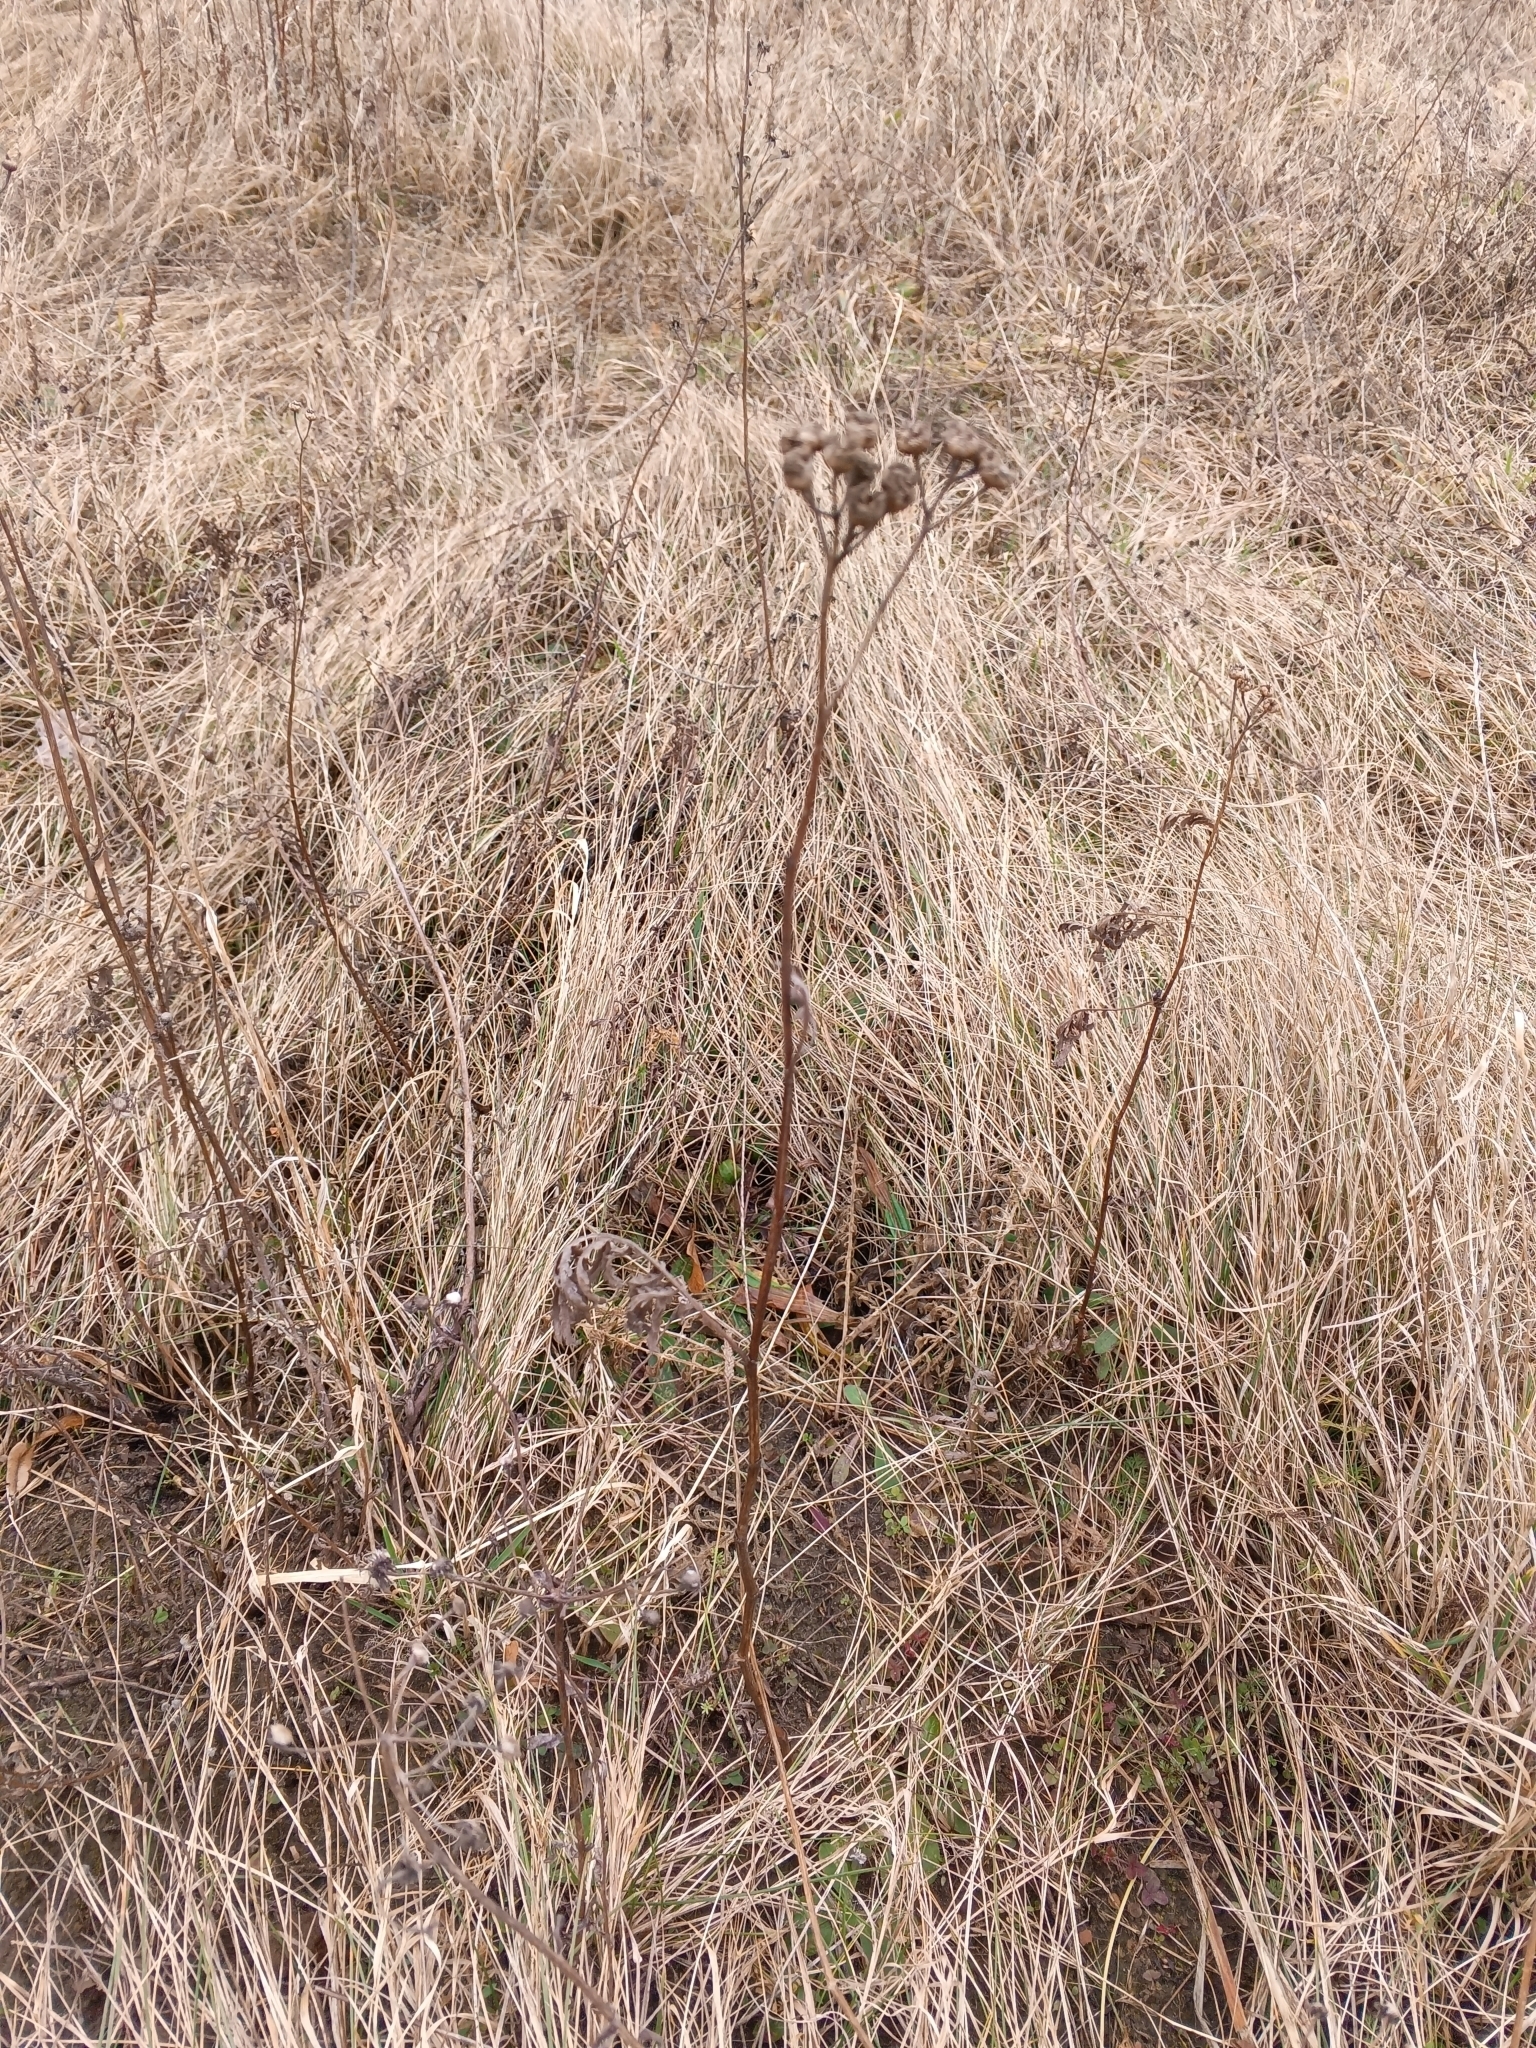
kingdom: Plantae
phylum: Tracheophyta
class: Magnoliopsida
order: Asterales
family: Asteraceae
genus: Tanacetum
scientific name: Tanacetum vulgare
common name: Common tansy
